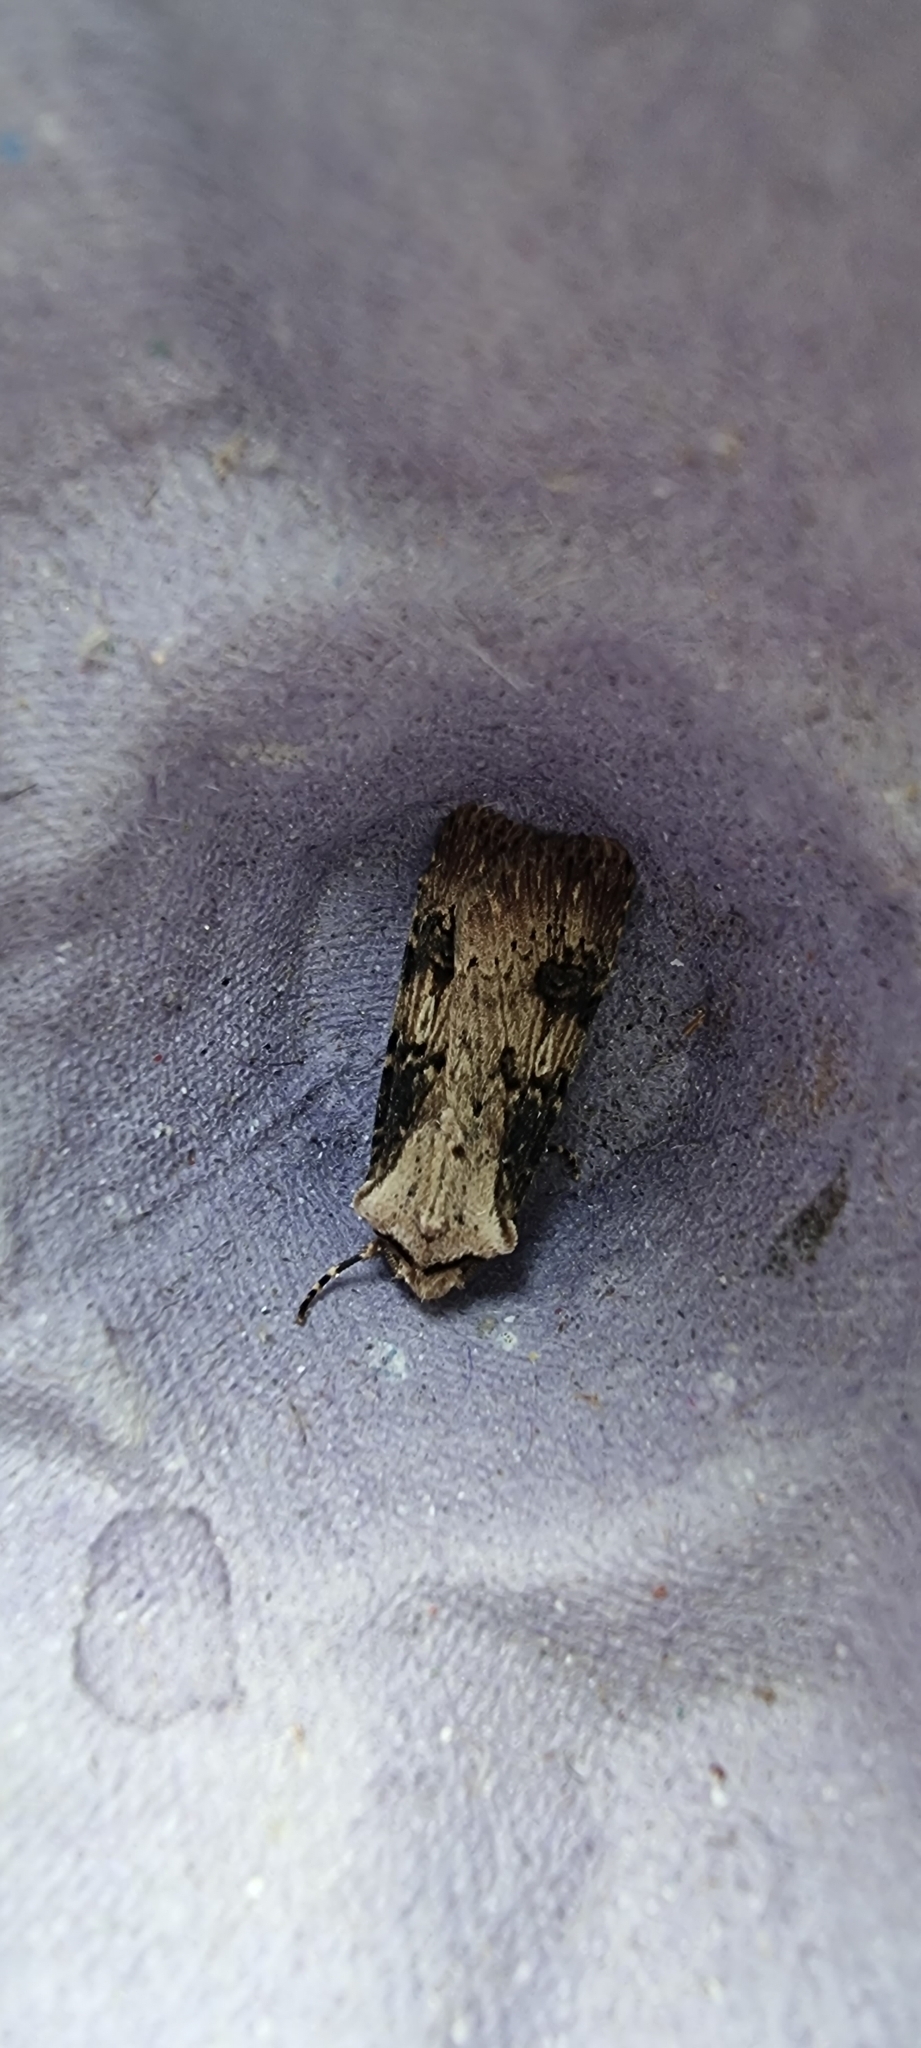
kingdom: Animalia
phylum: Arthropoda
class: Insecta
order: Lepidoptera
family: Noctuidae
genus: Agrotis
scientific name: Agrotis puta
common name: Shuttle-shaped dart
